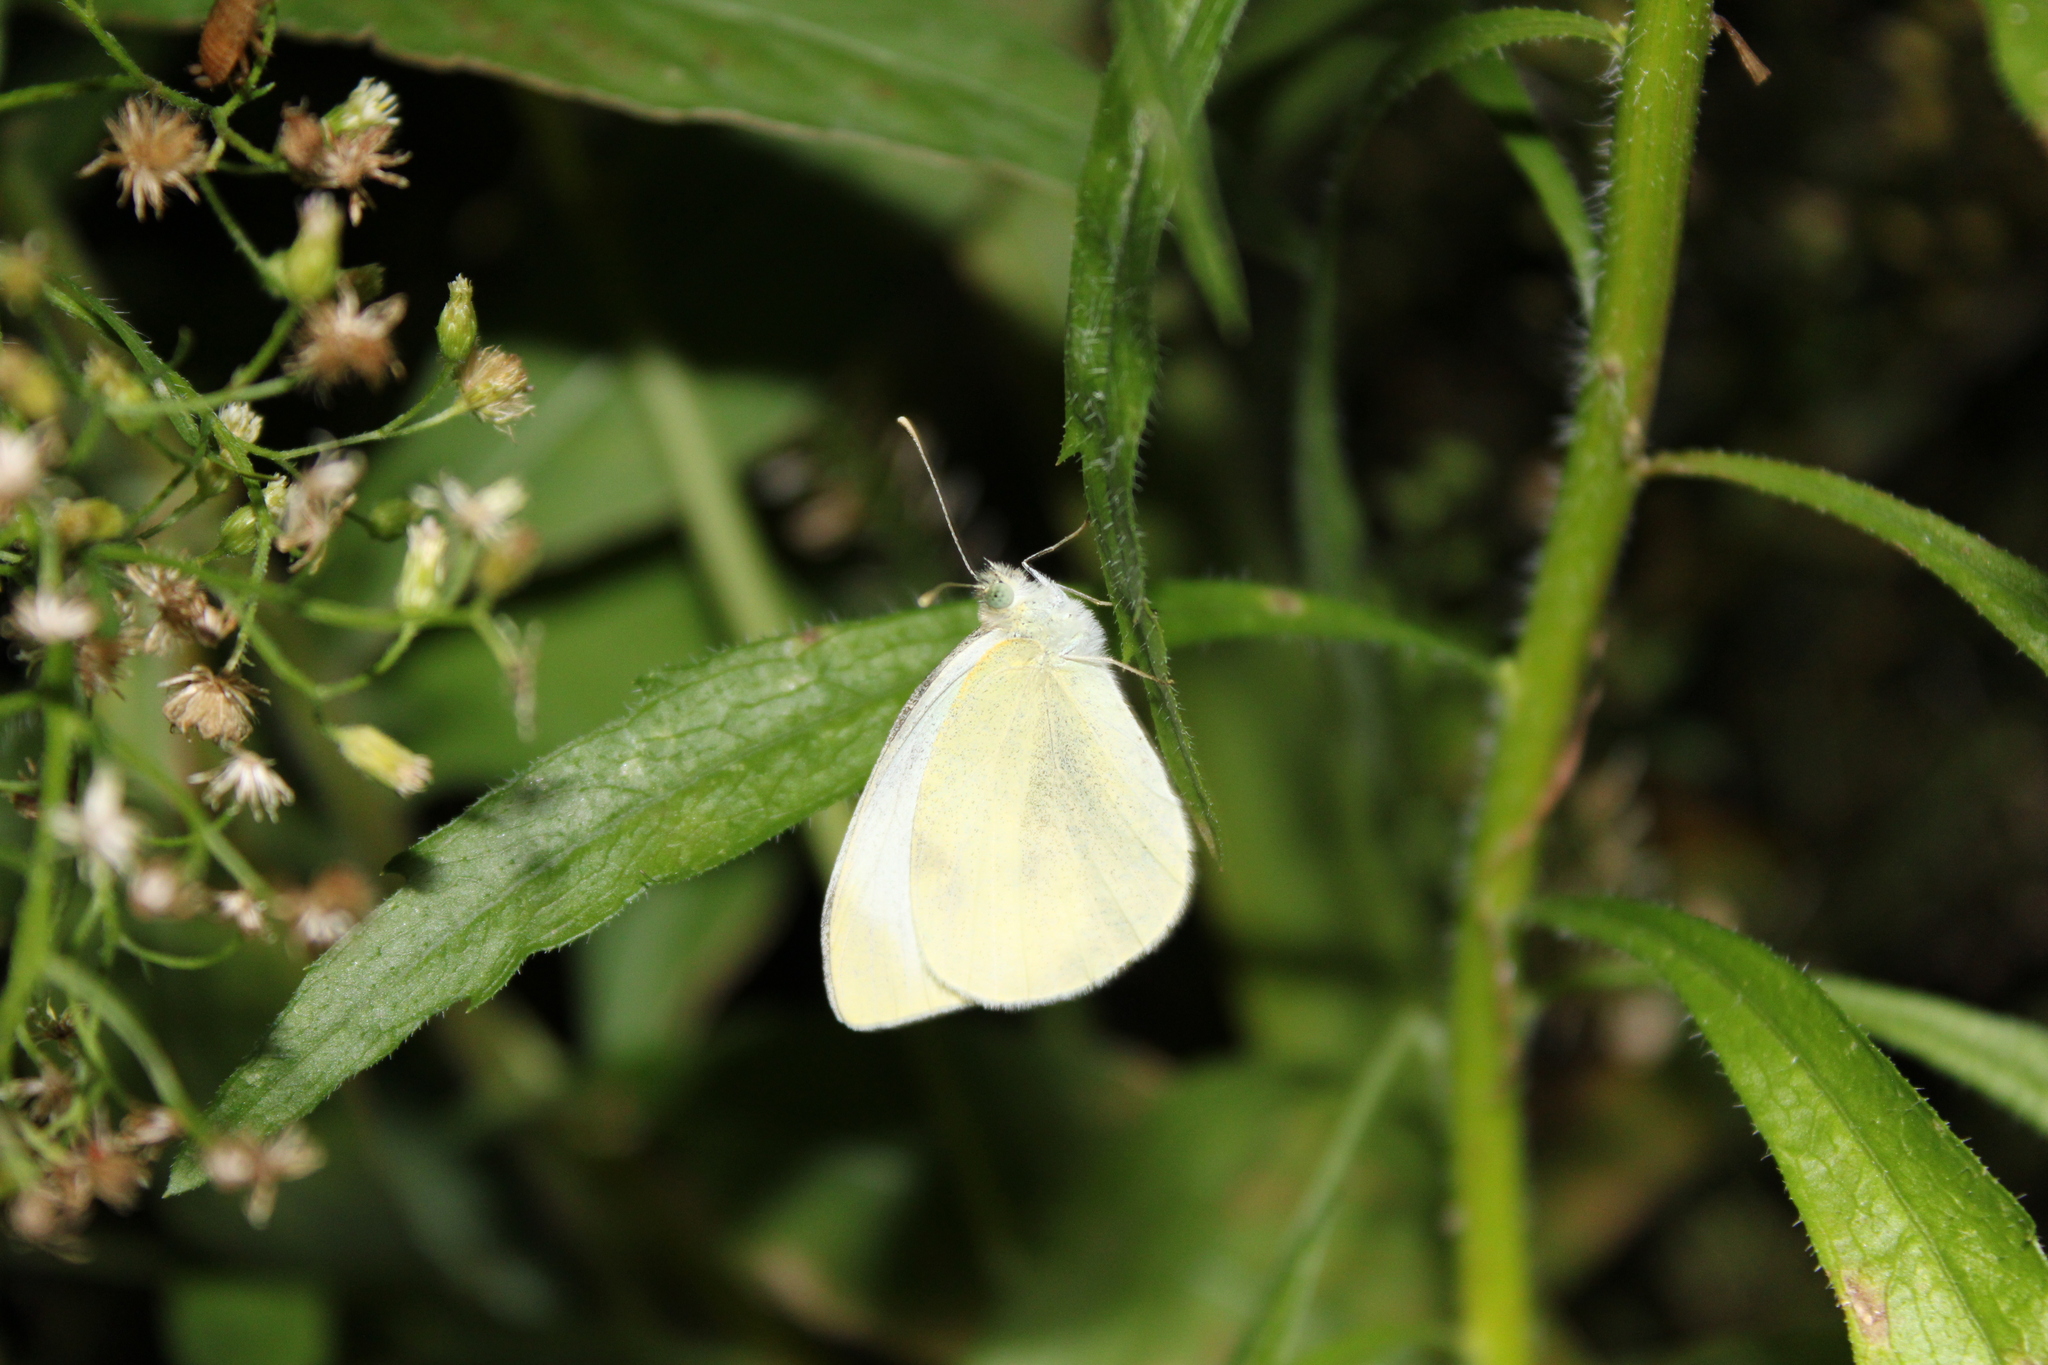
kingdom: Animalia
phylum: Arthropoda
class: Insecta
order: Lepidoptera
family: Pieridae
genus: Pieris
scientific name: Pieris rapae
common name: Small white
